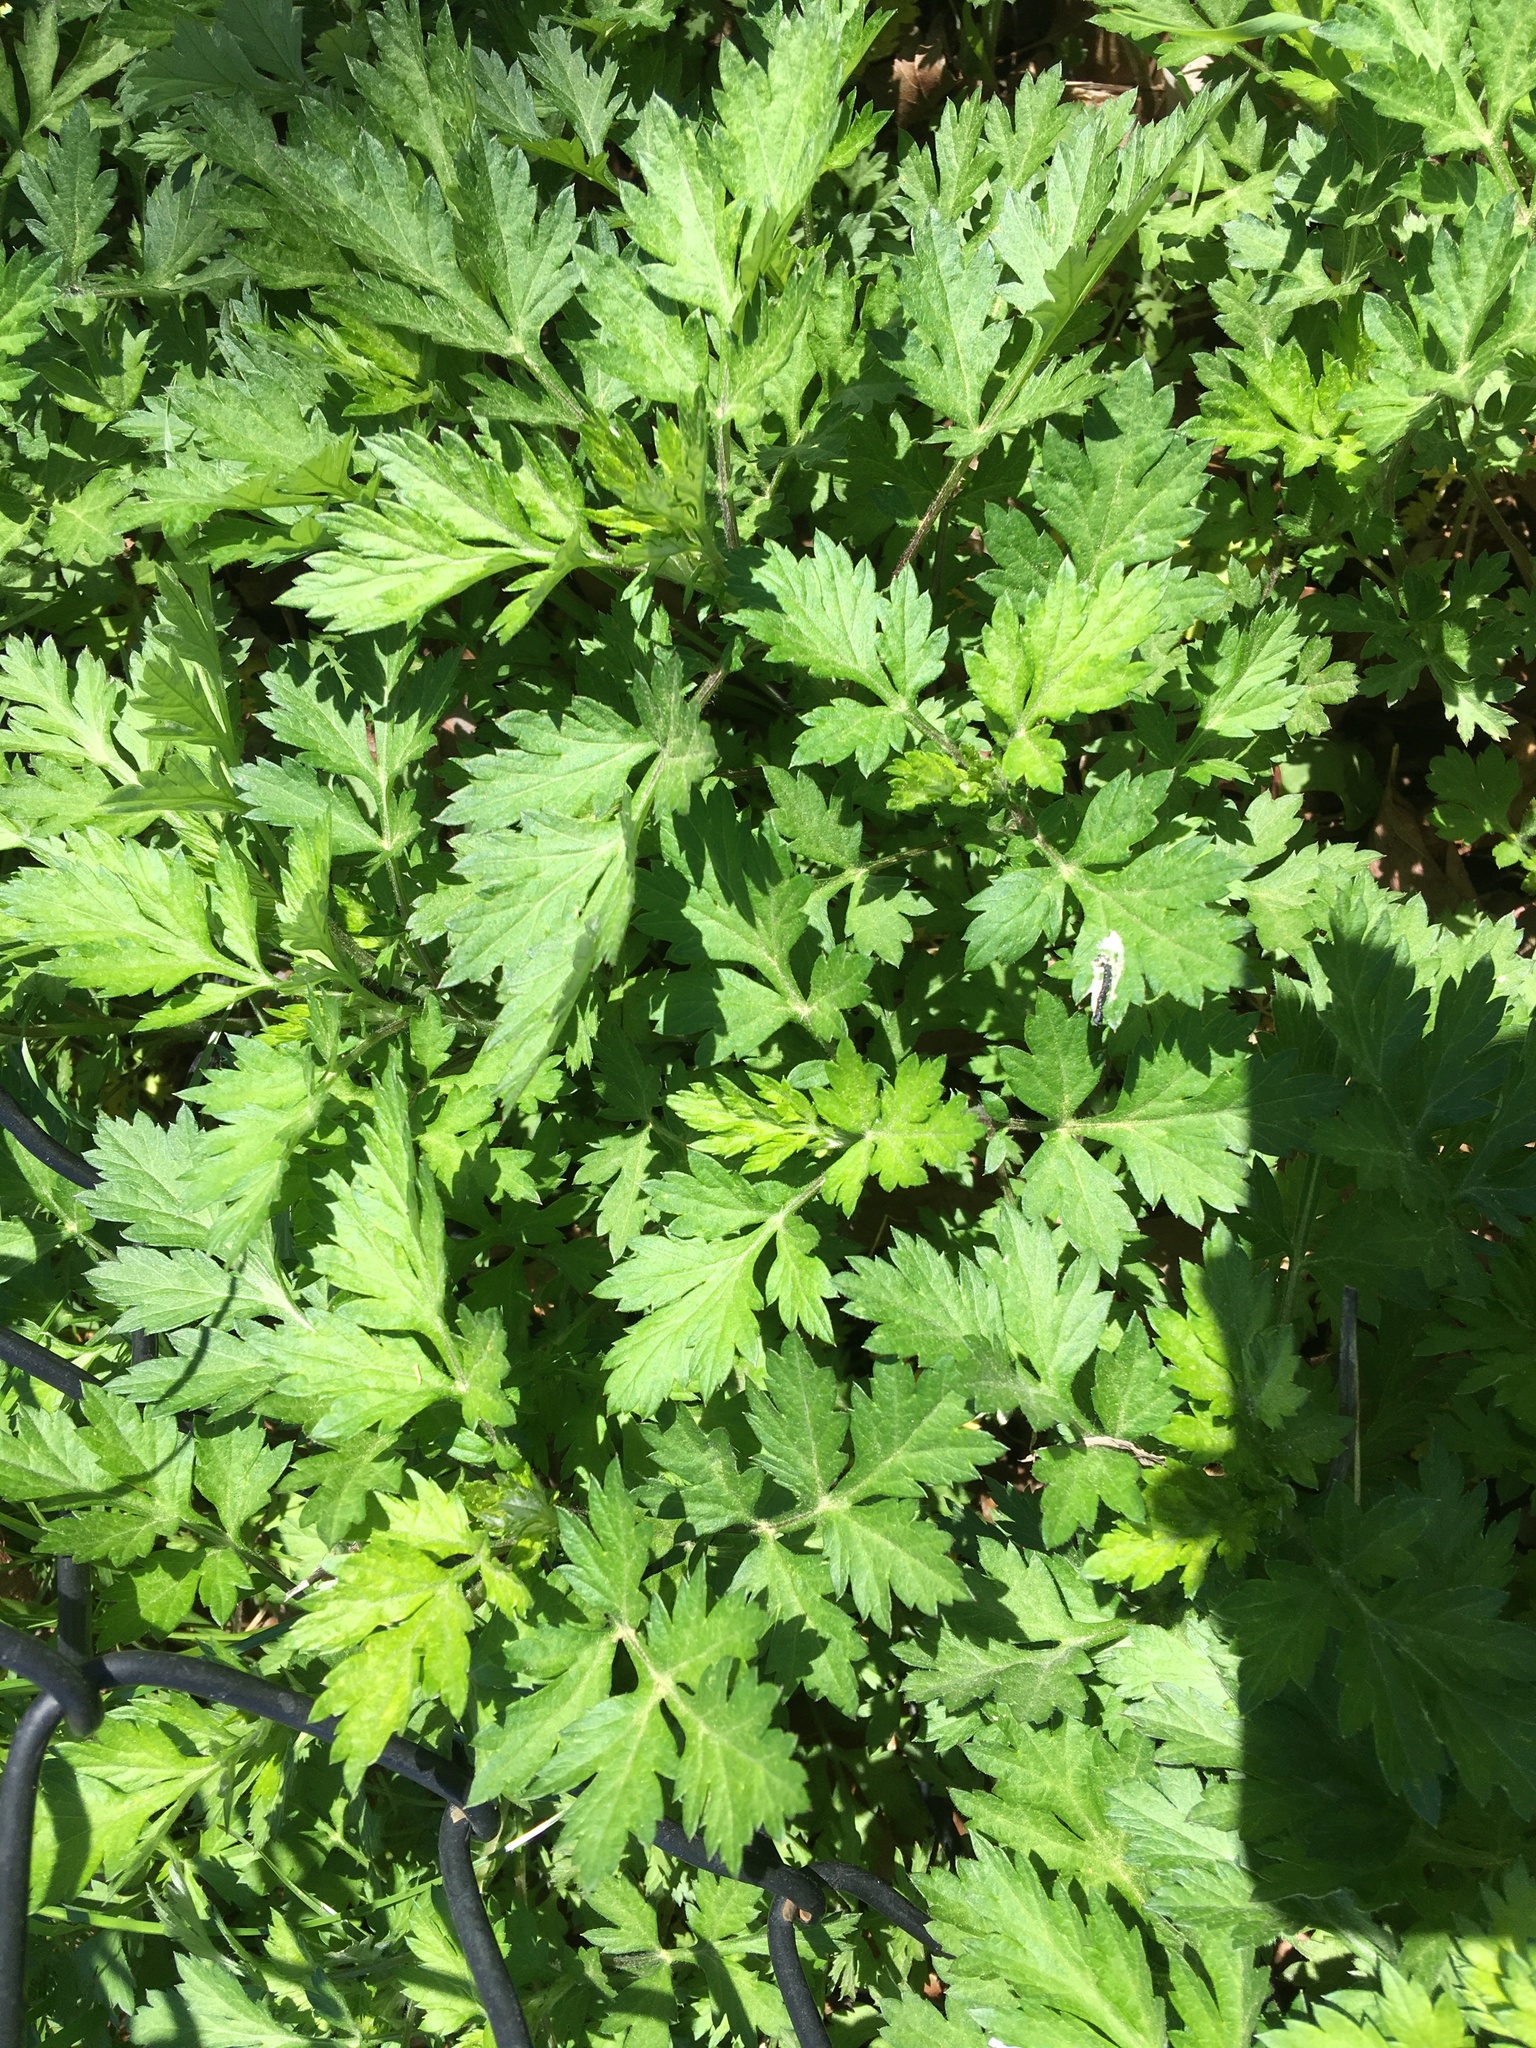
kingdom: Plantae
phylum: Tracheophyta
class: Magnoliopsida
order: Asterales
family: Asteraceae
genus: Artemisia
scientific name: Artemisia vulgaris
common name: Mugwort
